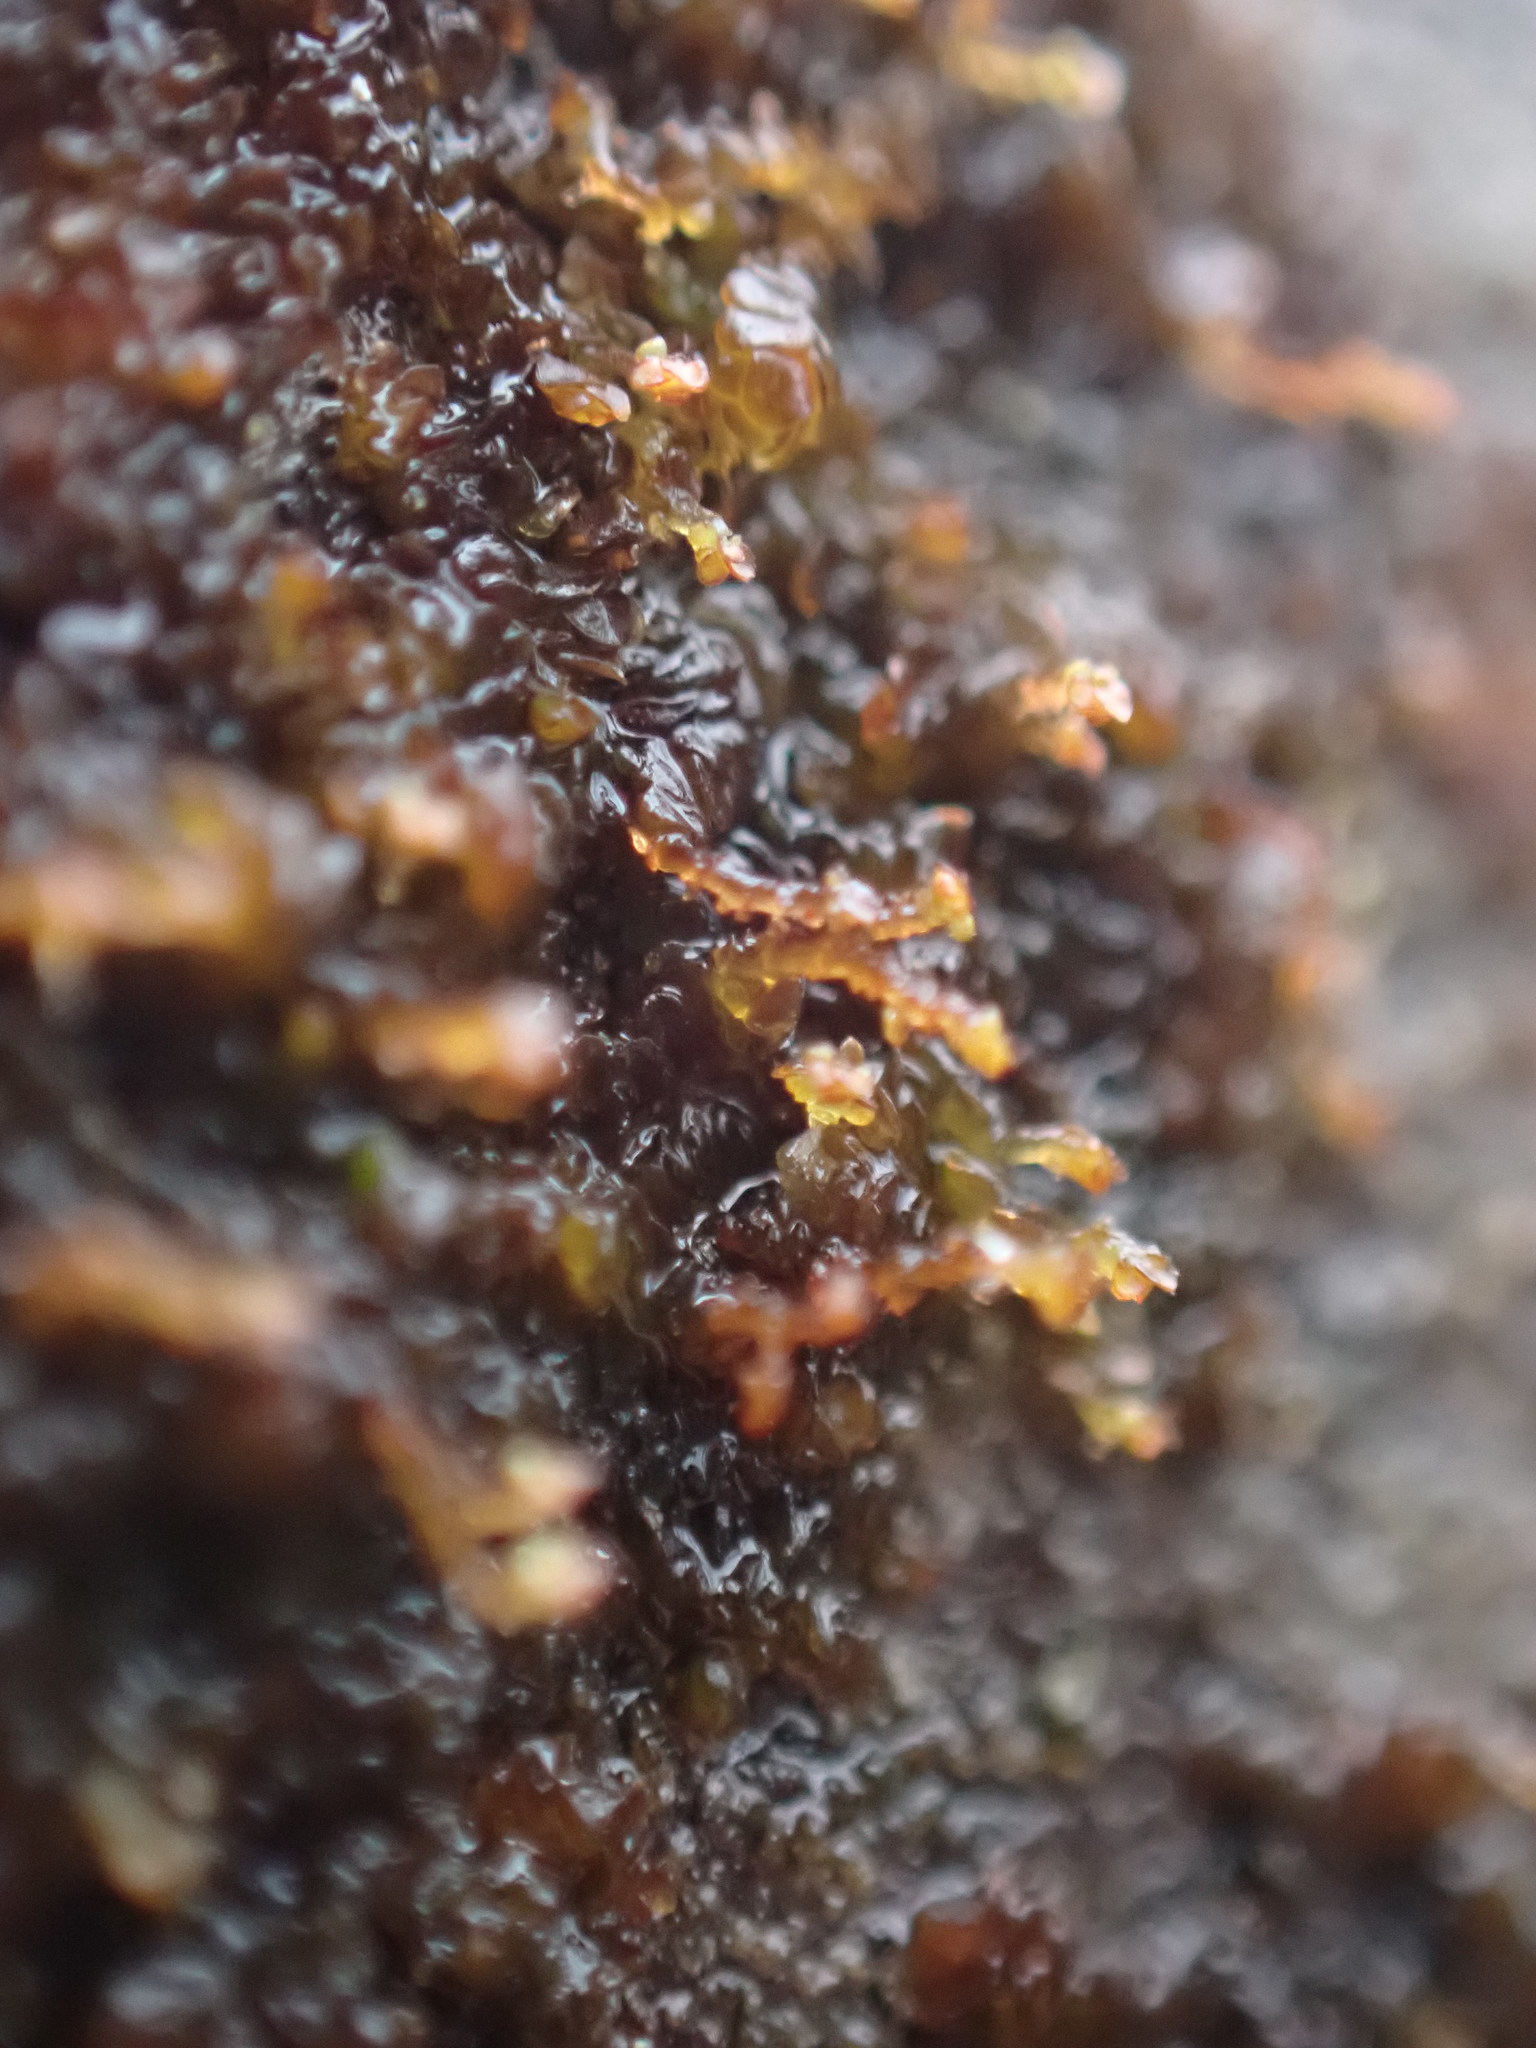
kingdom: Plantae
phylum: Marchantiophyta
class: Jungermanniopsida
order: Porellales
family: Frullaniaceae
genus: Frullania
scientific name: Frullania bolanderi
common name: Bolander s scalewort
